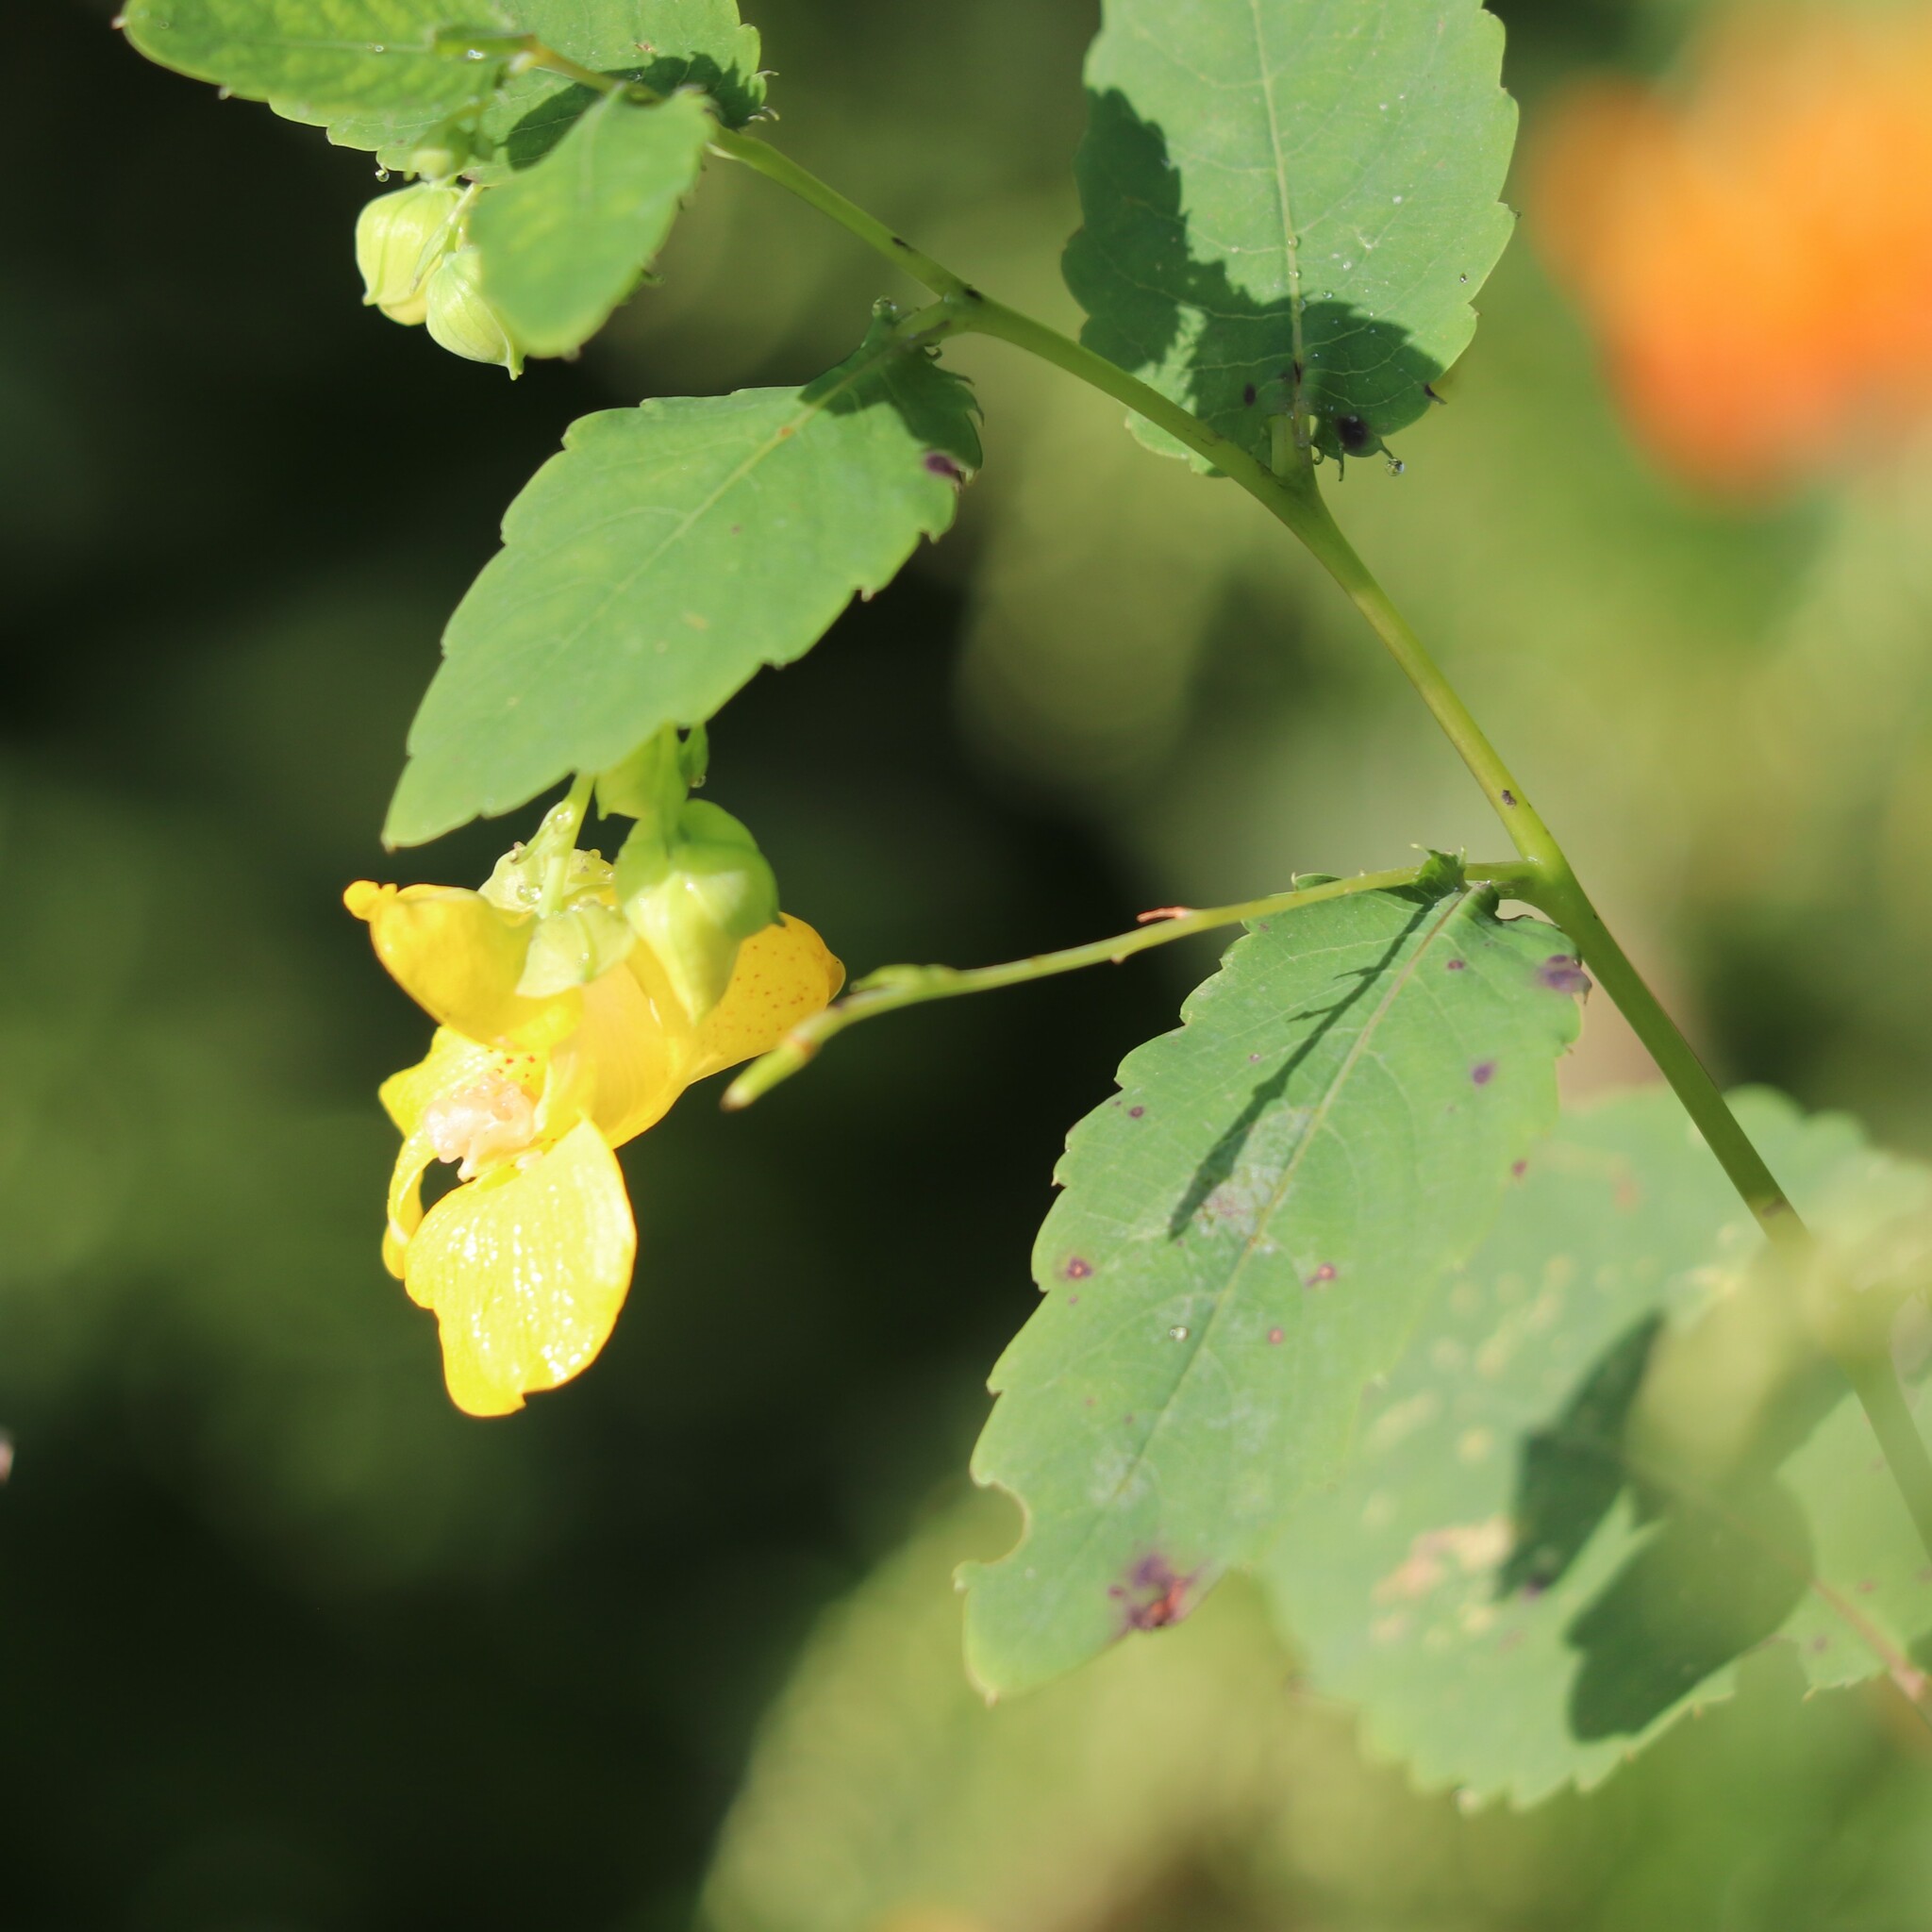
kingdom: Plantae
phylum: Tracheophyta
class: Magnoliopsida
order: Ericales
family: Balsaminaceae
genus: Impatiens
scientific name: Impatiens pallida
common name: Pale snapweed
